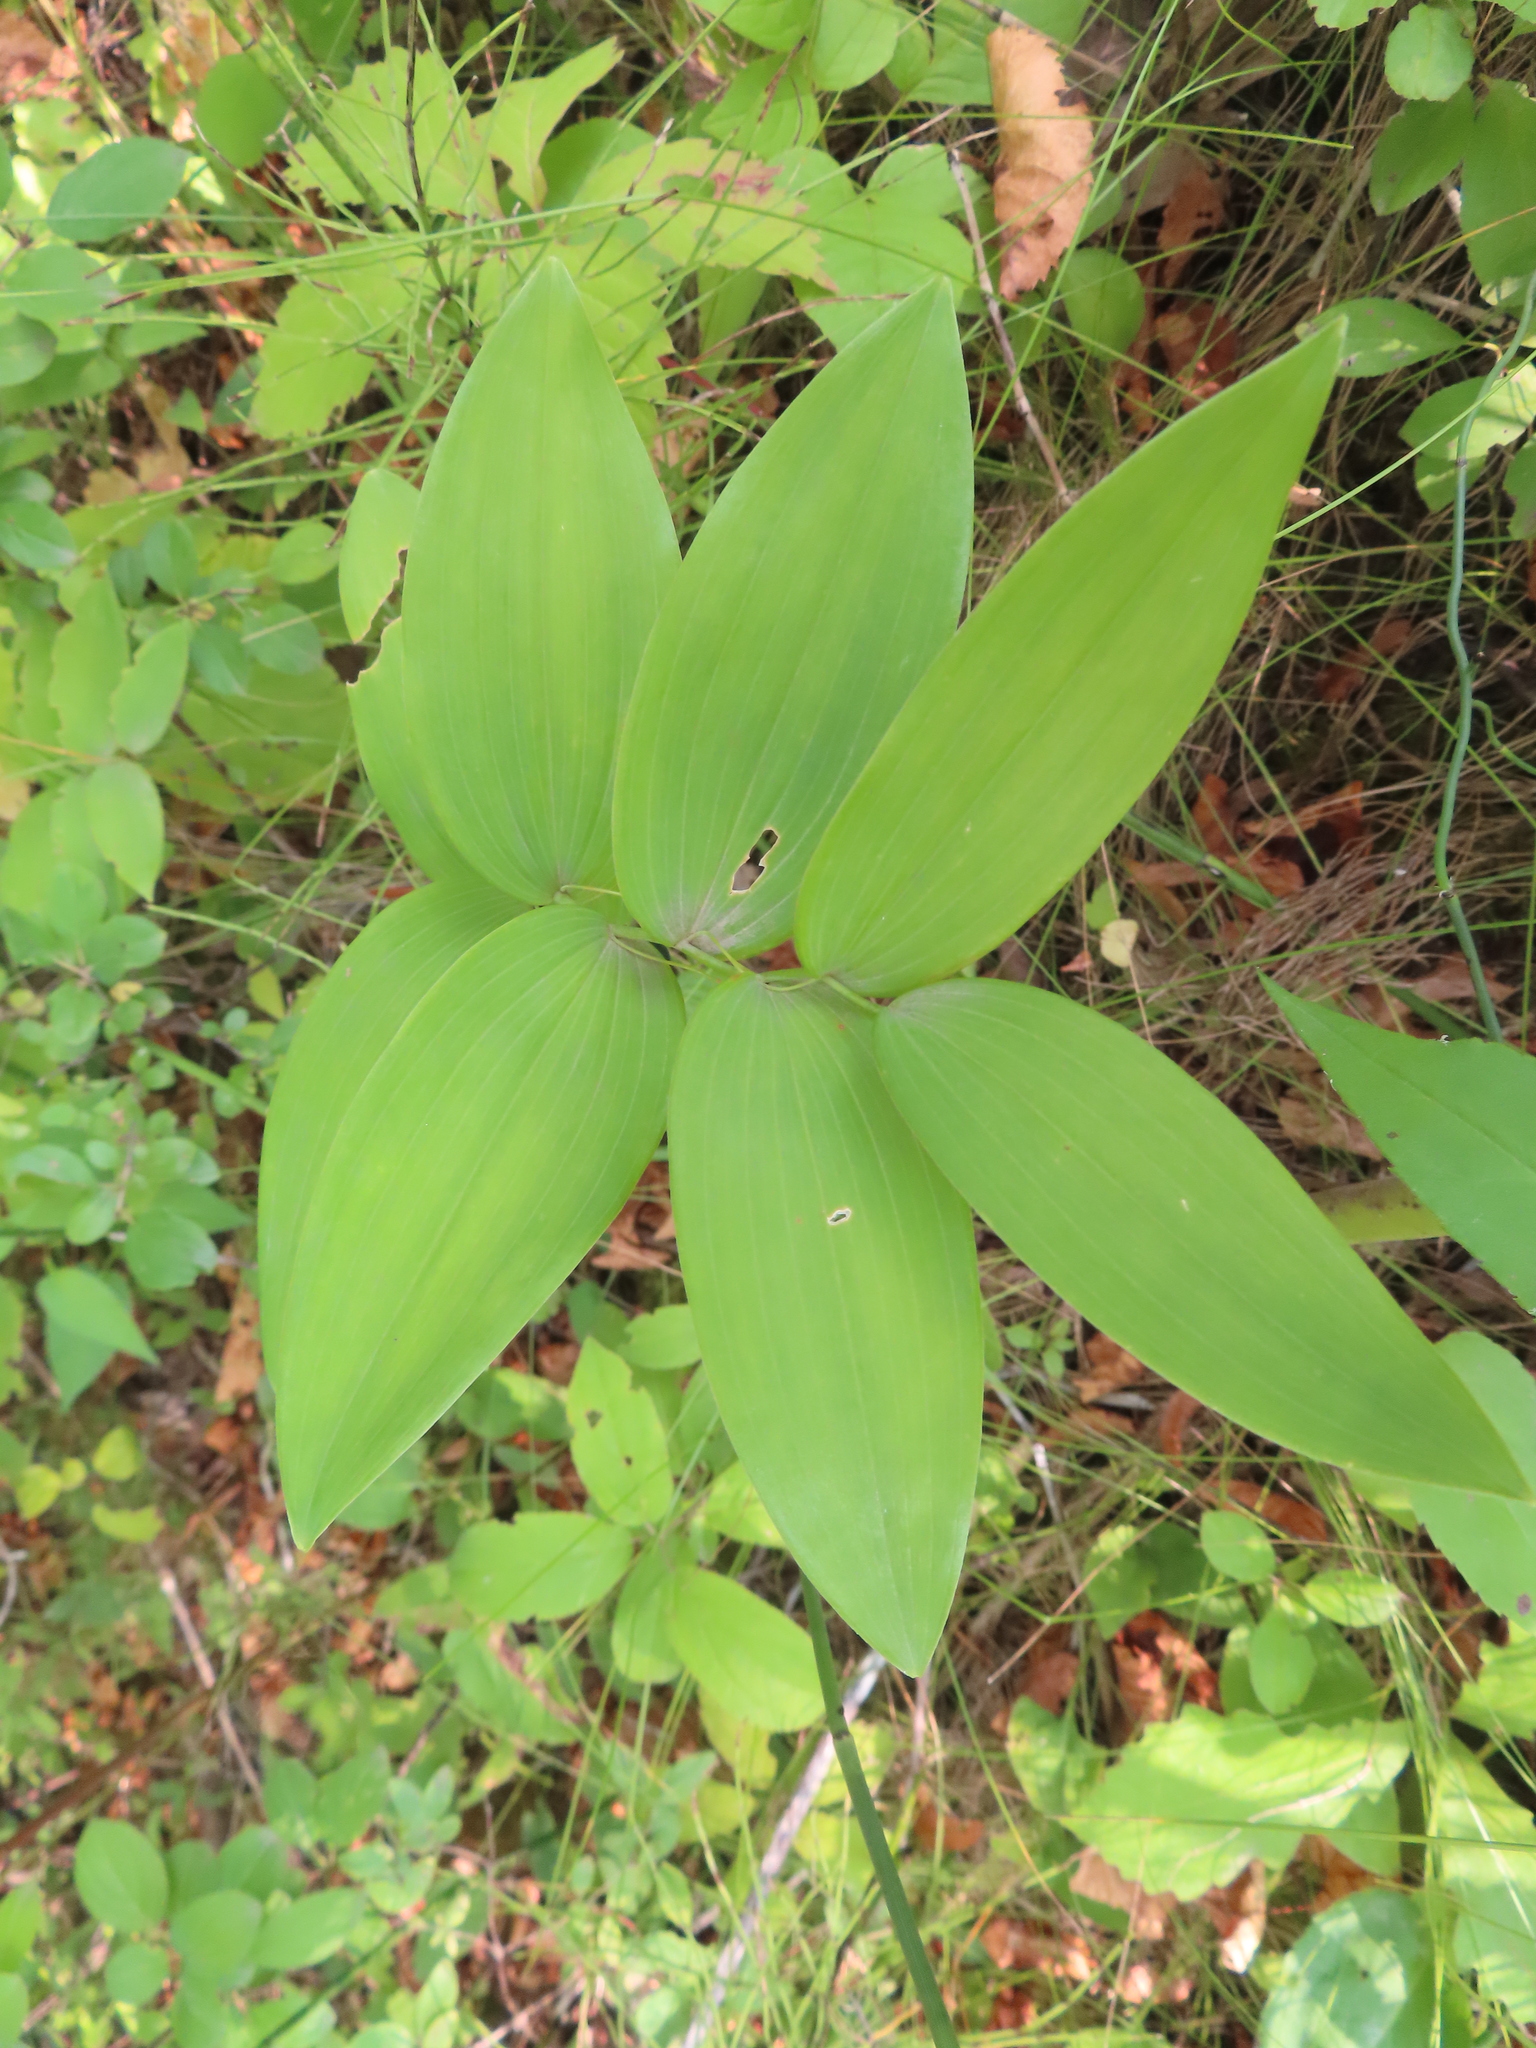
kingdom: Plantae
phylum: Tracheophyta
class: Liliopsida
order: Asparagales
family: Asparagaceae
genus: Polygonatum
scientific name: Polygonatum biflorum
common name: American solomon's-seal
